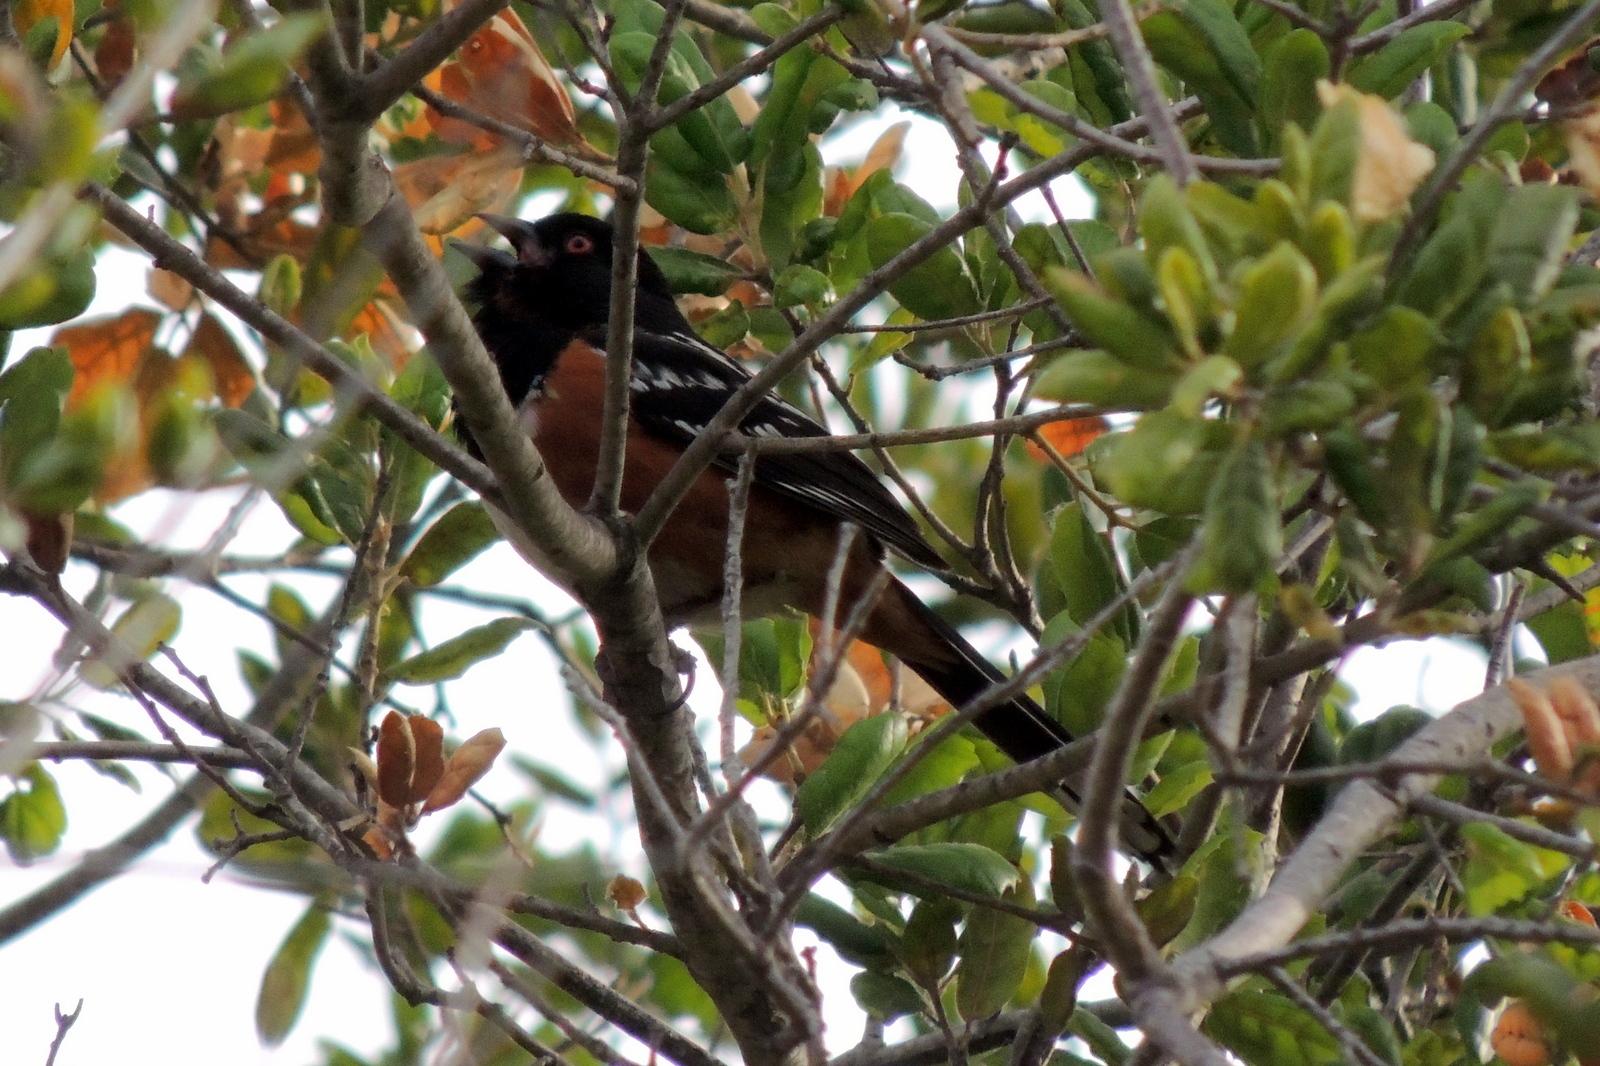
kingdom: Animalia
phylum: Chordata
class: Aves
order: Passeriformes
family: Passerellidae
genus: Pipilo
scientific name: Pipilo maculatus
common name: Spotted towhee
